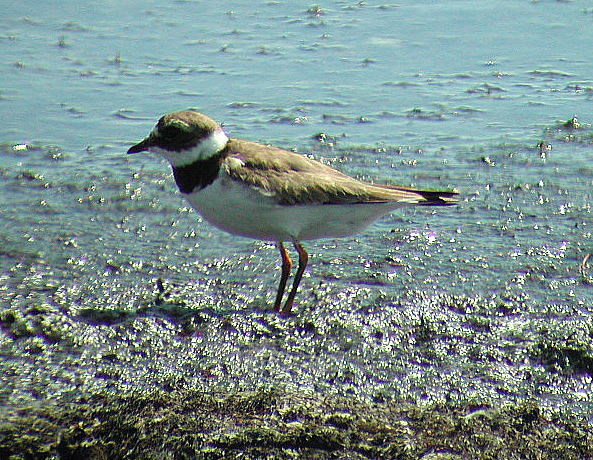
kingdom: Animalia
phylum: Chordata
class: Aves
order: Charadriiformes
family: Charadriidae
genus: Charadrius
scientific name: Charadrius hiaticula
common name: Common ringed plover
